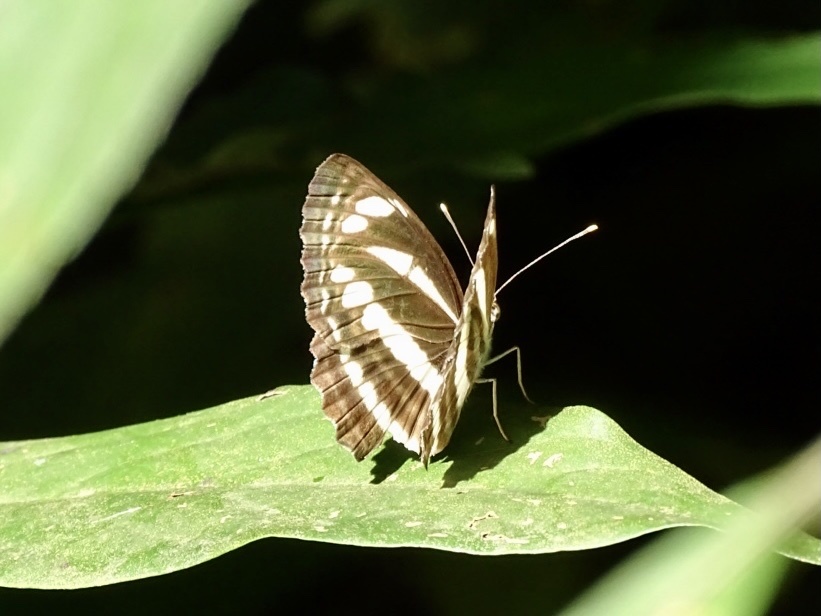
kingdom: Animalia
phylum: Arthropoda
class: Insecta
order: Lepidoptera
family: Nymphalidae
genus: Neptis
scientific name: Neptis clinia
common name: Southern sullied sailer
